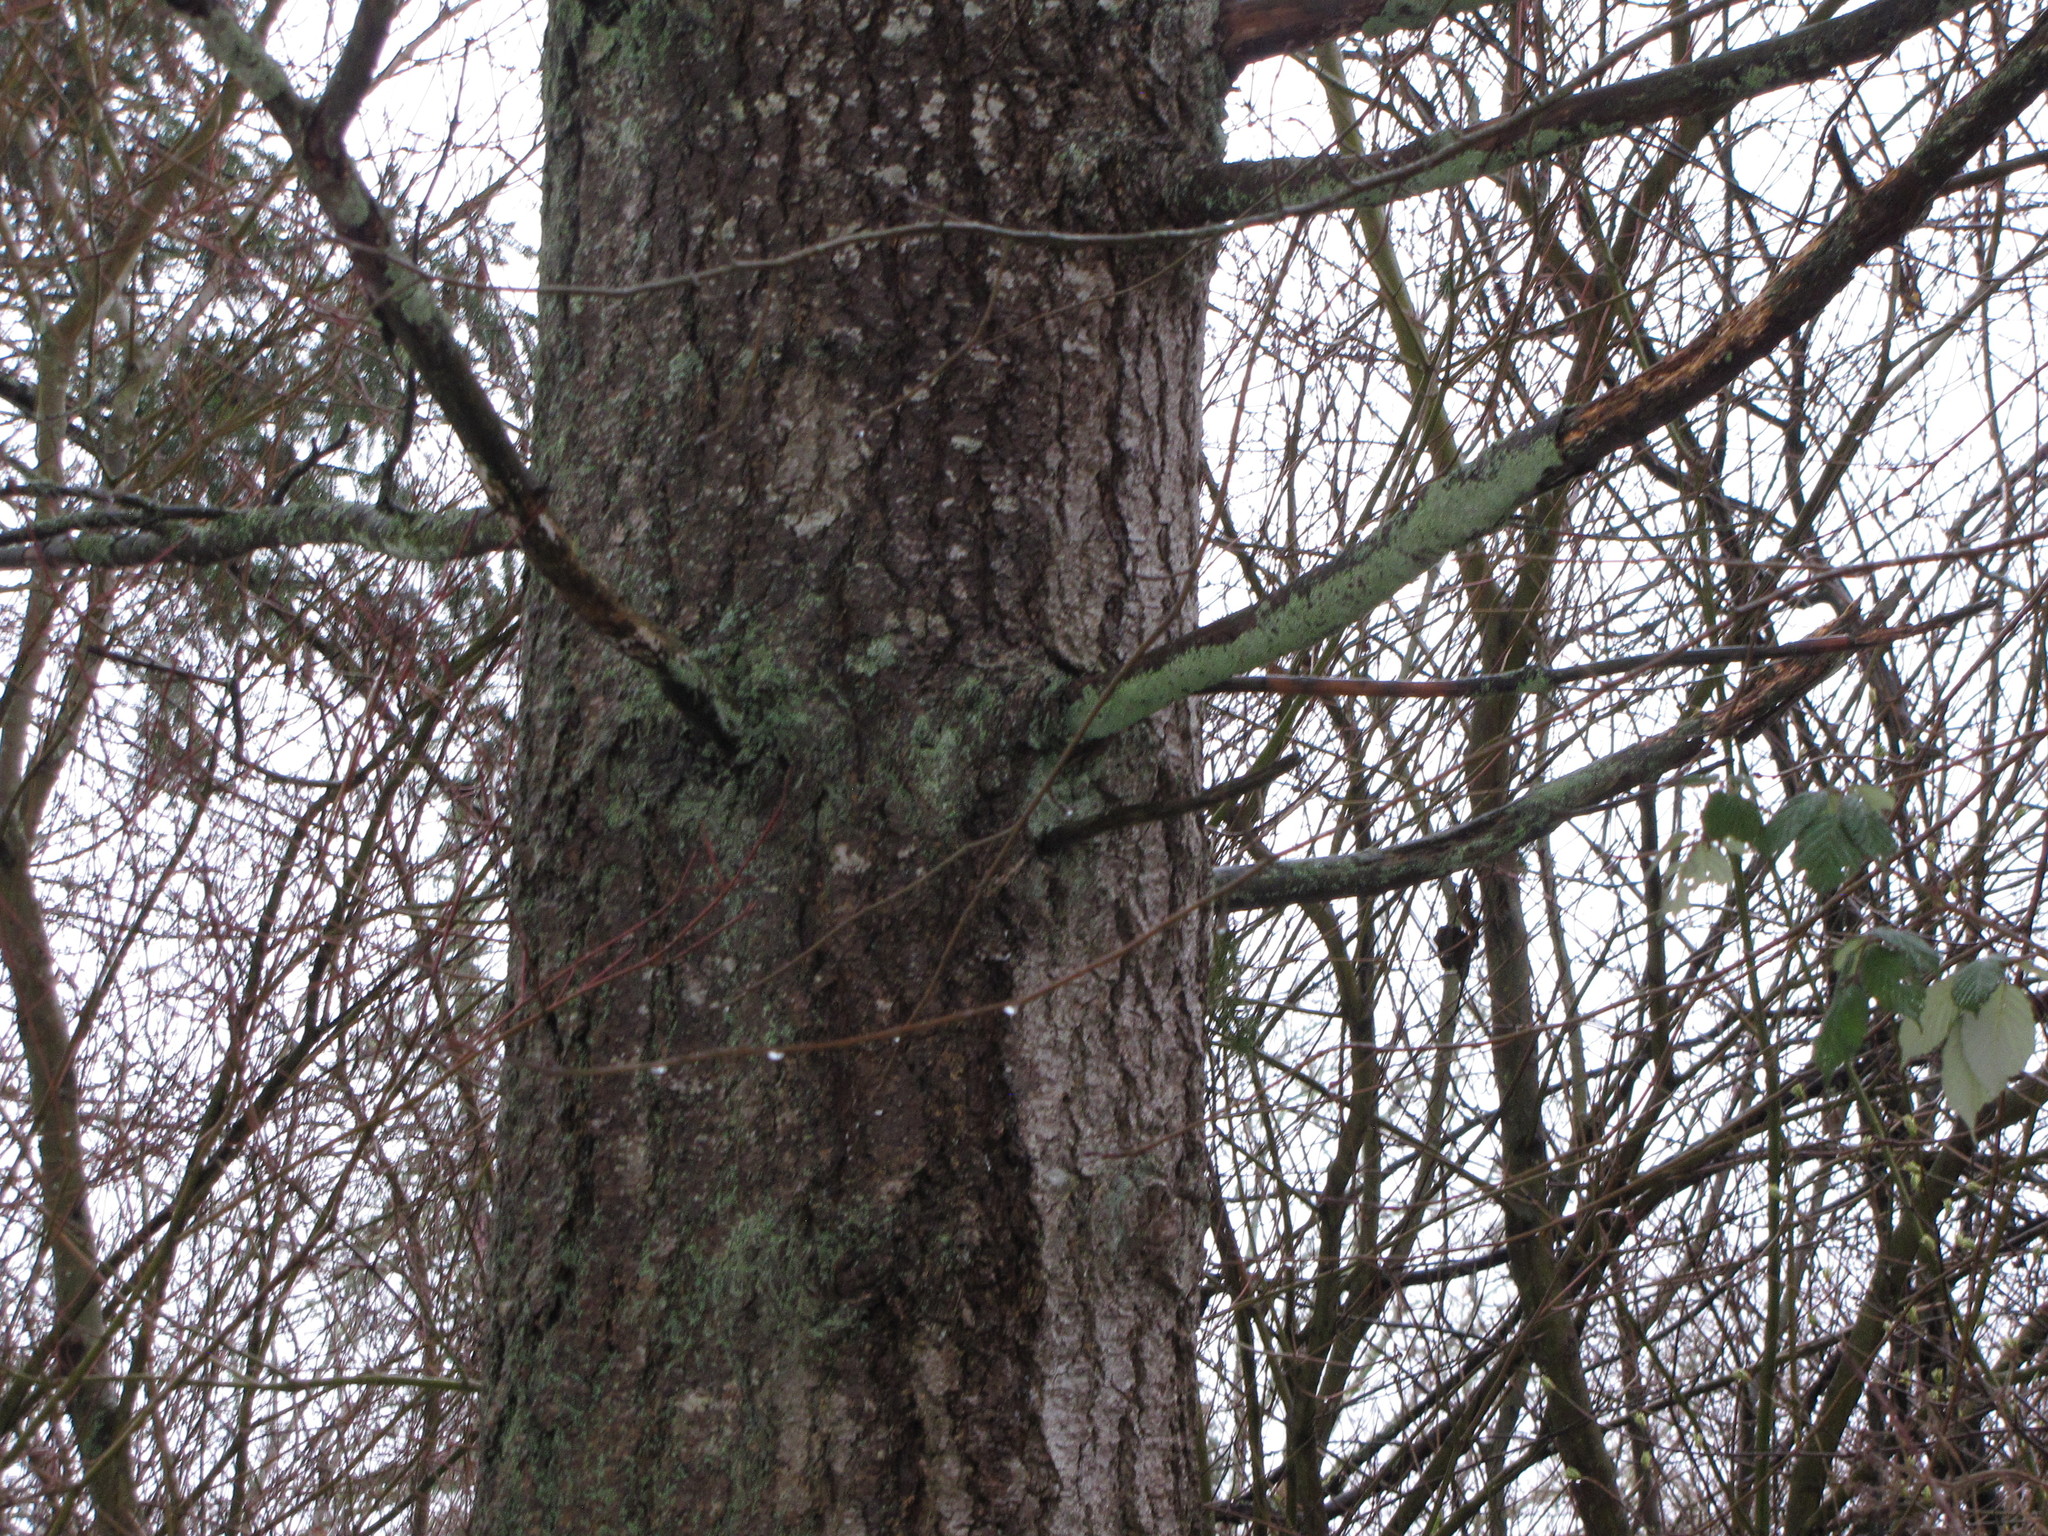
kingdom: Plantae
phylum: Tracheophyta
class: Pinopsida
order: Pinales
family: Pinaceae
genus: Pseudotsuga
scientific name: Pseudotsuga menziesii
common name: Douglas fir
